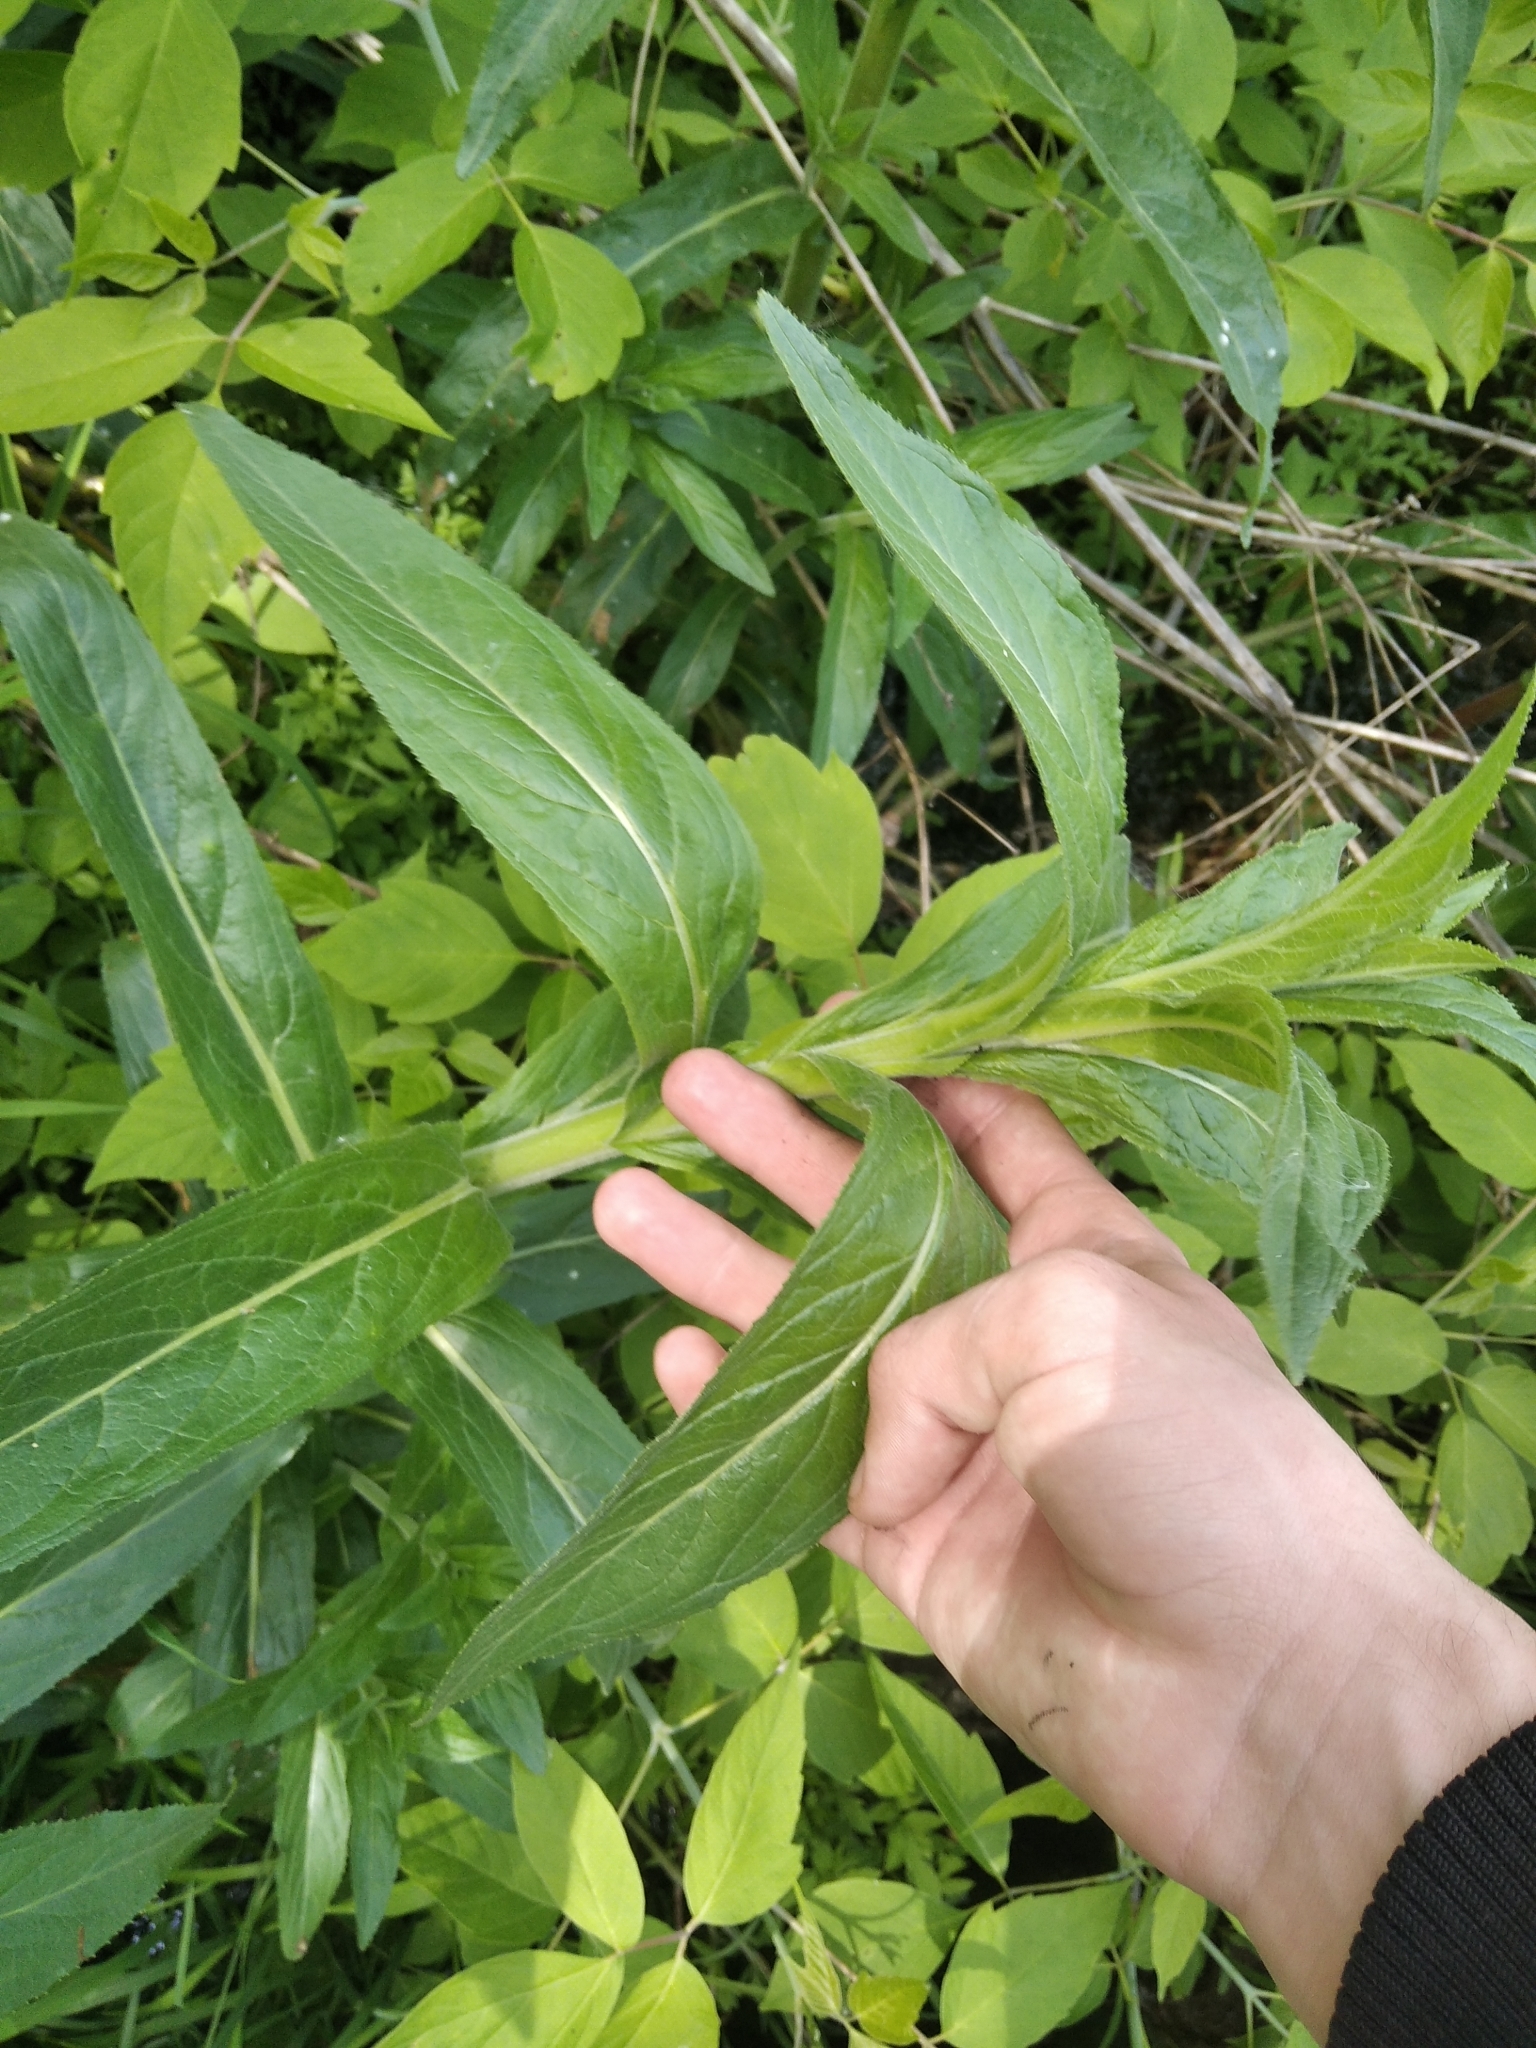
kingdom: Plantae
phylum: Tracheophyta
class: Magnoliopsida
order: Myrtales
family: Onagraceae
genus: Epilobium
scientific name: Epilobium hirsutum
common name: Great willowherb
